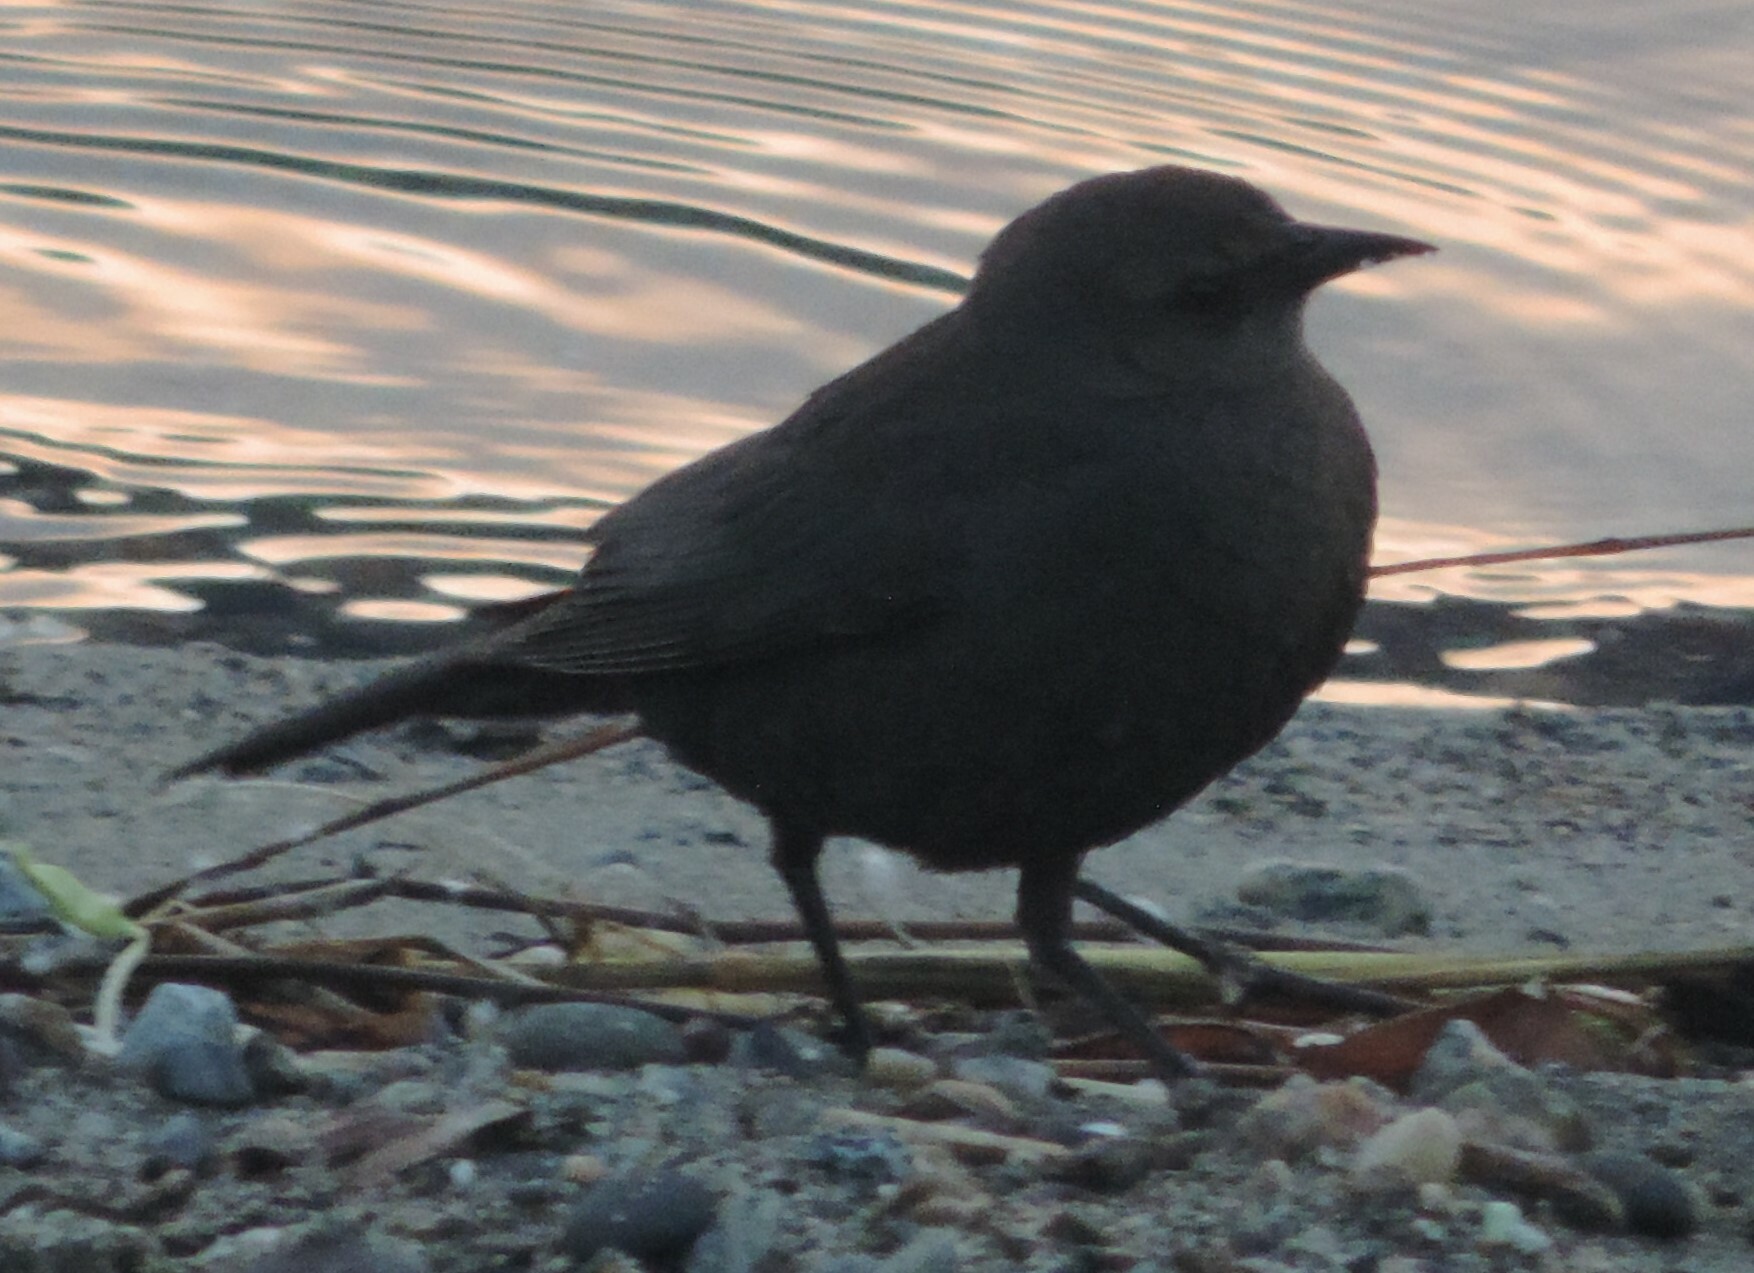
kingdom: Animalia
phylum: Chordata
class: Aves
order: Passeriformes
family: Icteridae
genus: Euphagus
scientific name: Euphagus cyanocephalus
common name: Brewer's blackbird
